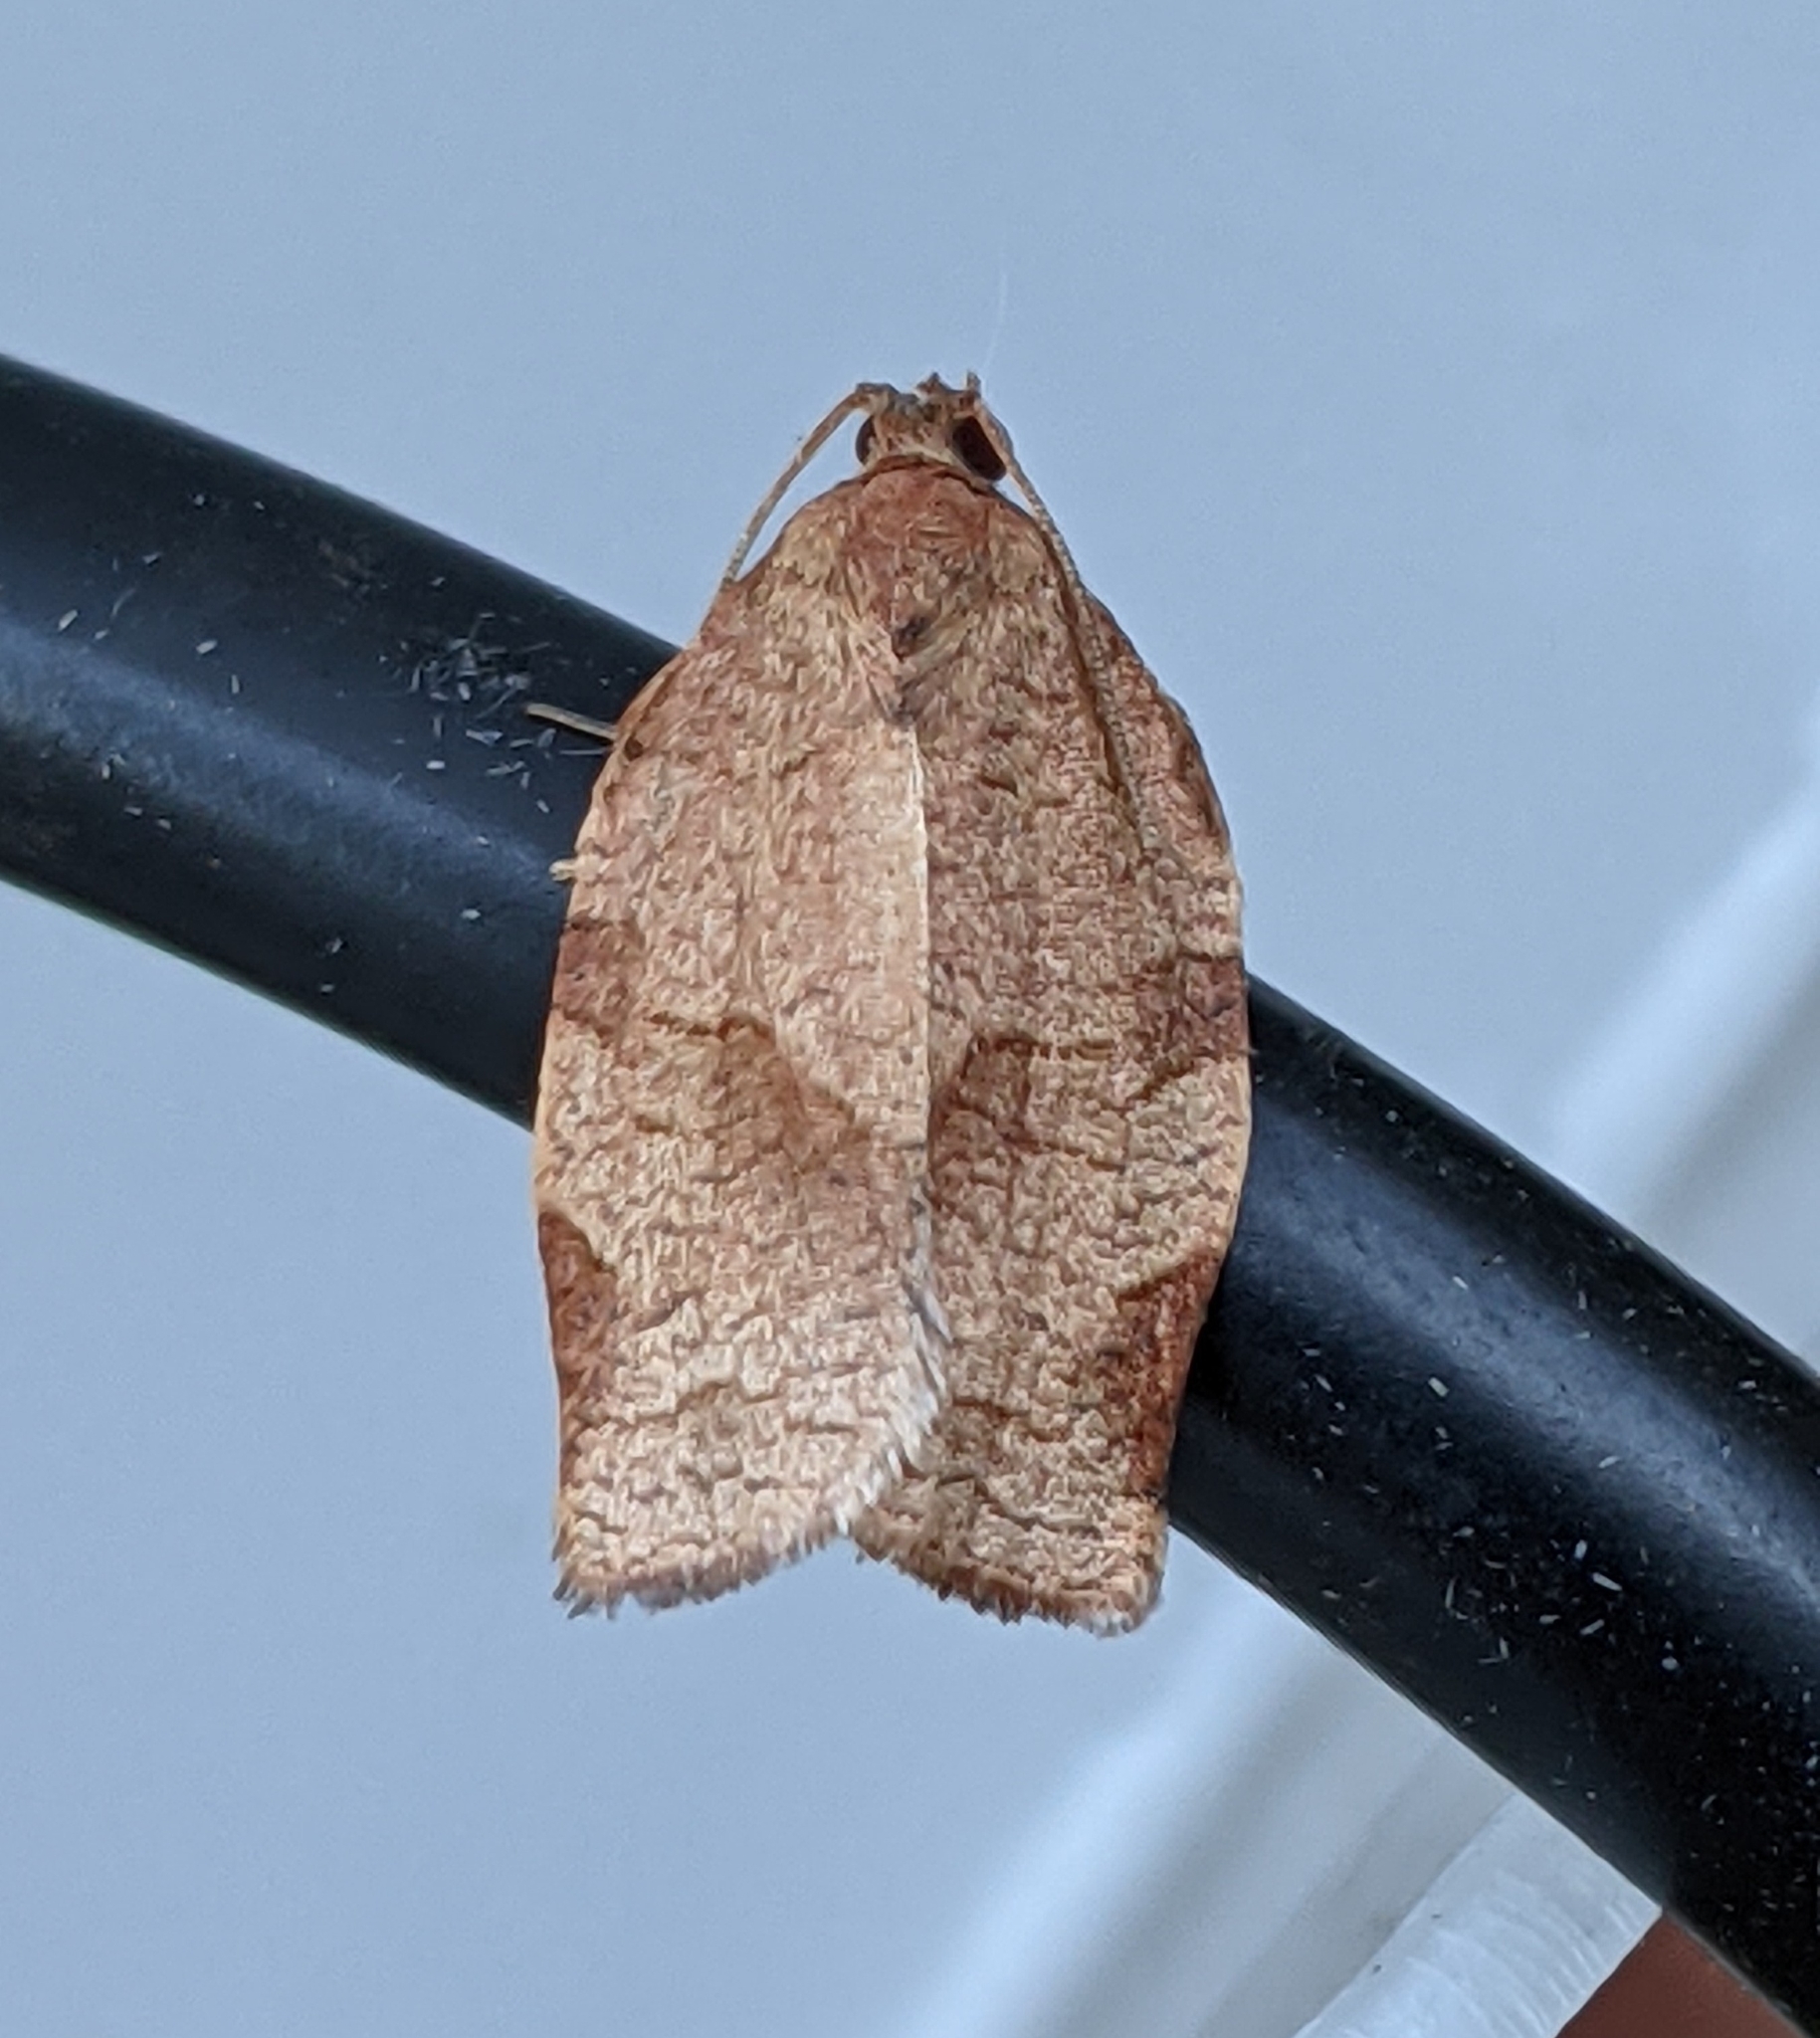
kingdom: Animalia
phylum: Arthropoda
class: Insecta
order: Lepidoptera
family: Tortricidae
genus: Choristoneura
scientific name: Choristoneura rosaceana
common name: Oblique-banded leafroller moth
